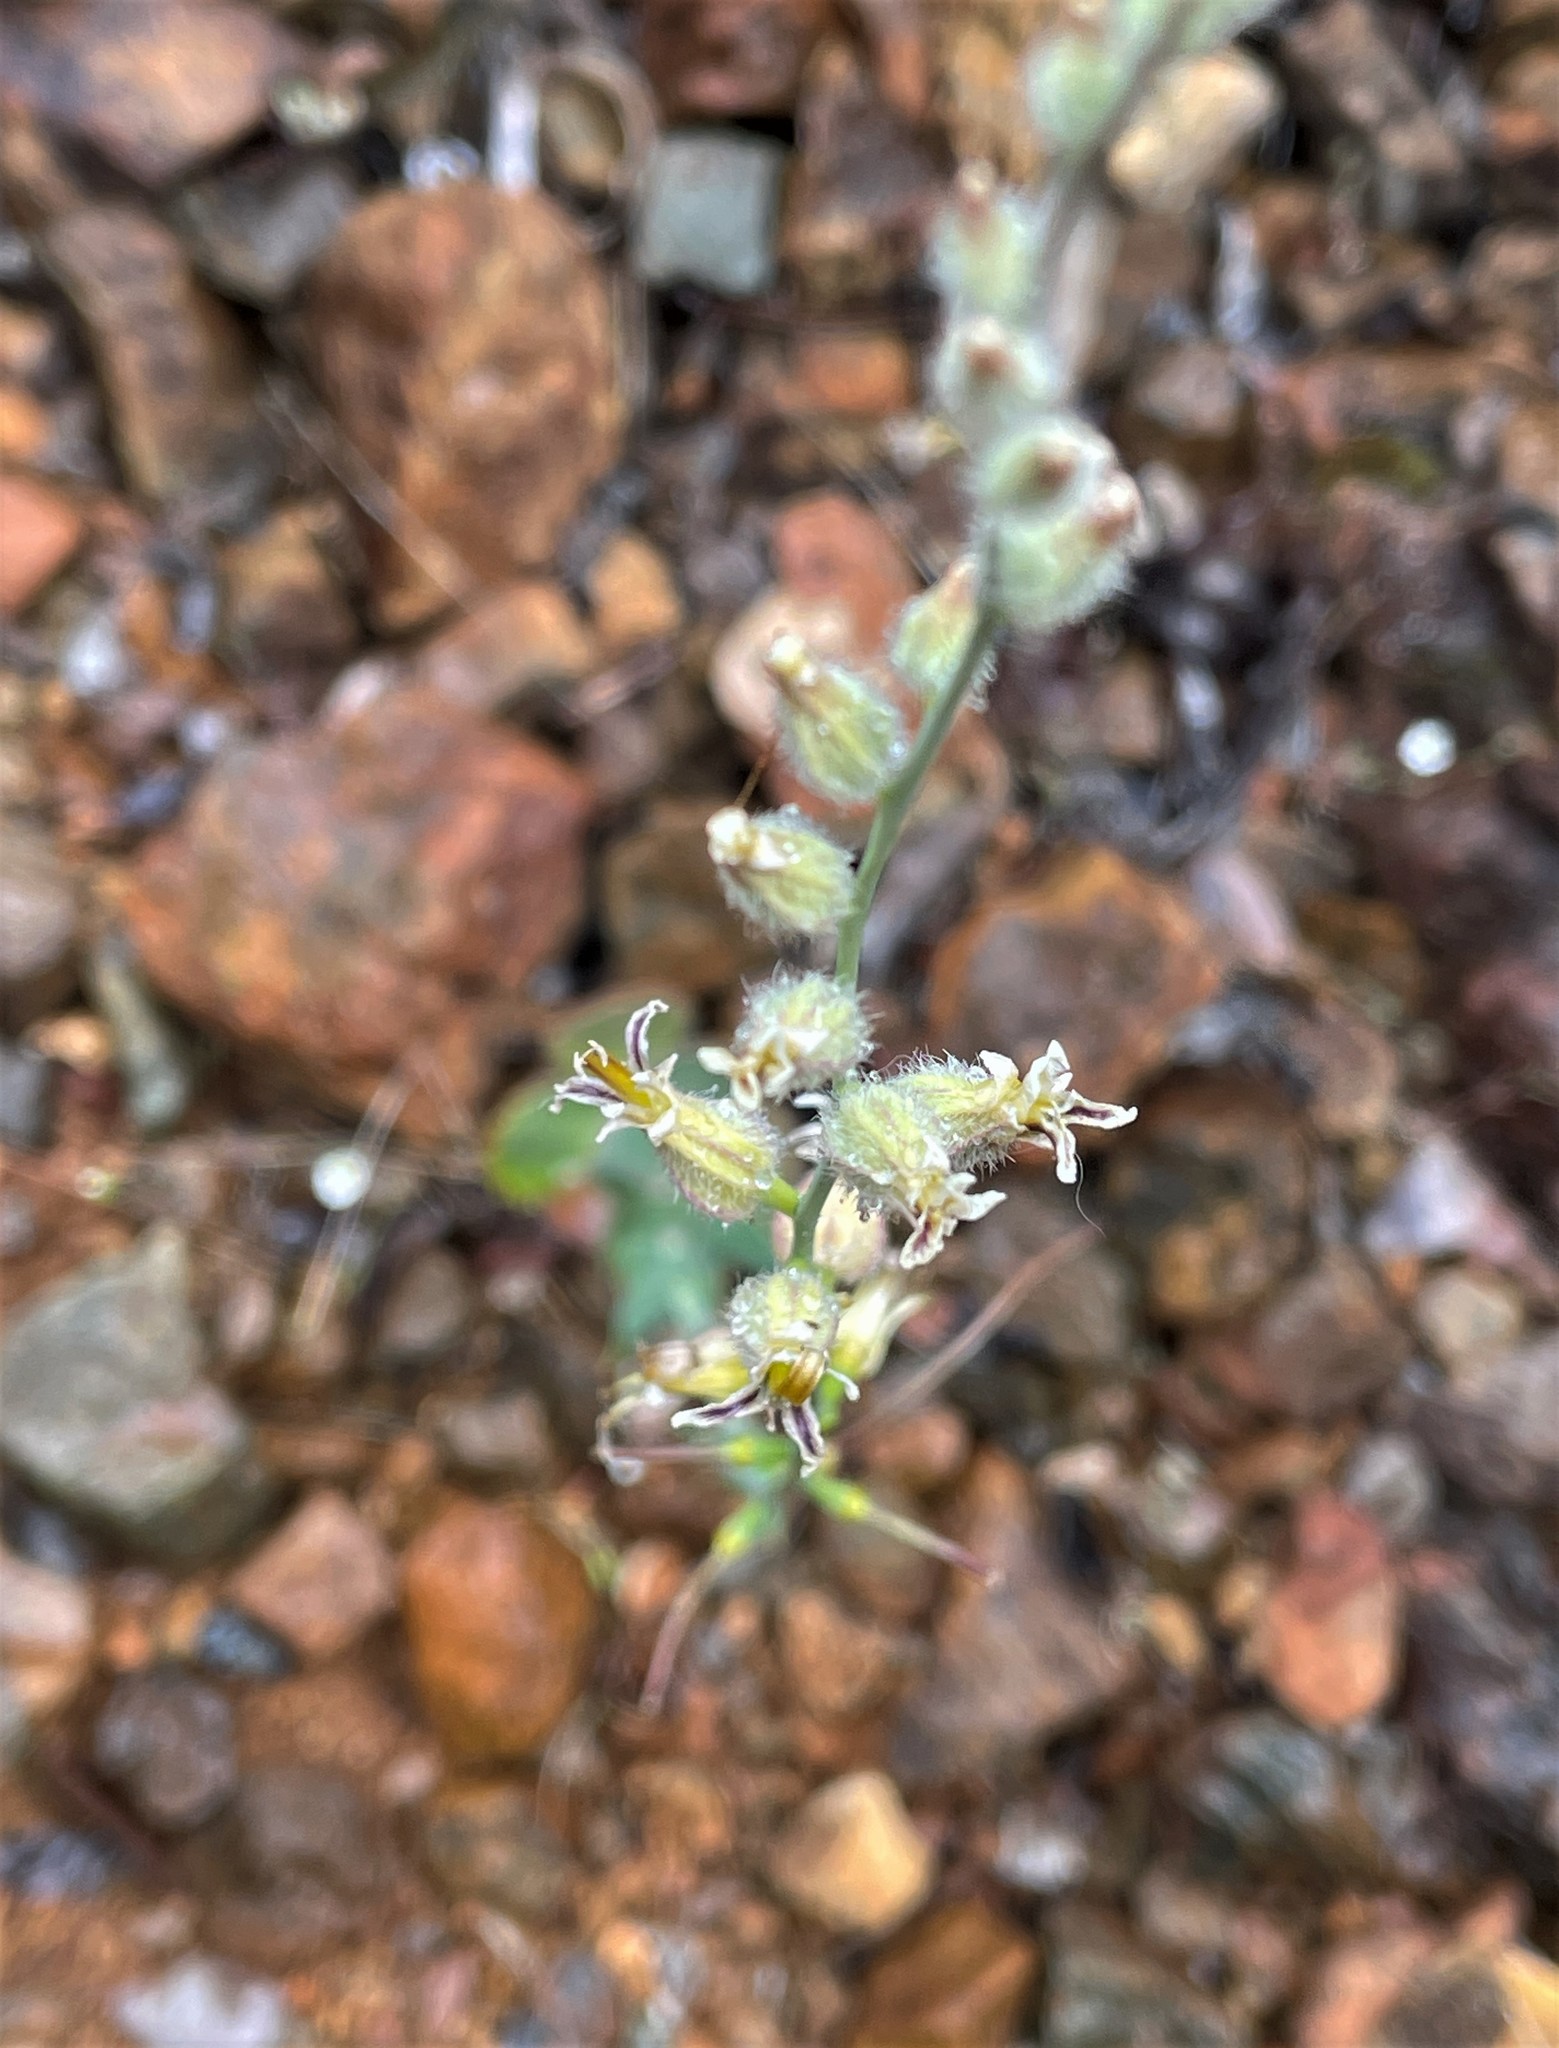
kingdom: Plantae
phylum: Tracheophyta
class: Magnoliopsida
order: Brassicales
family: Brassicaceae
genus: Streptanthus
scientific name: Streptanthus morrisonii
